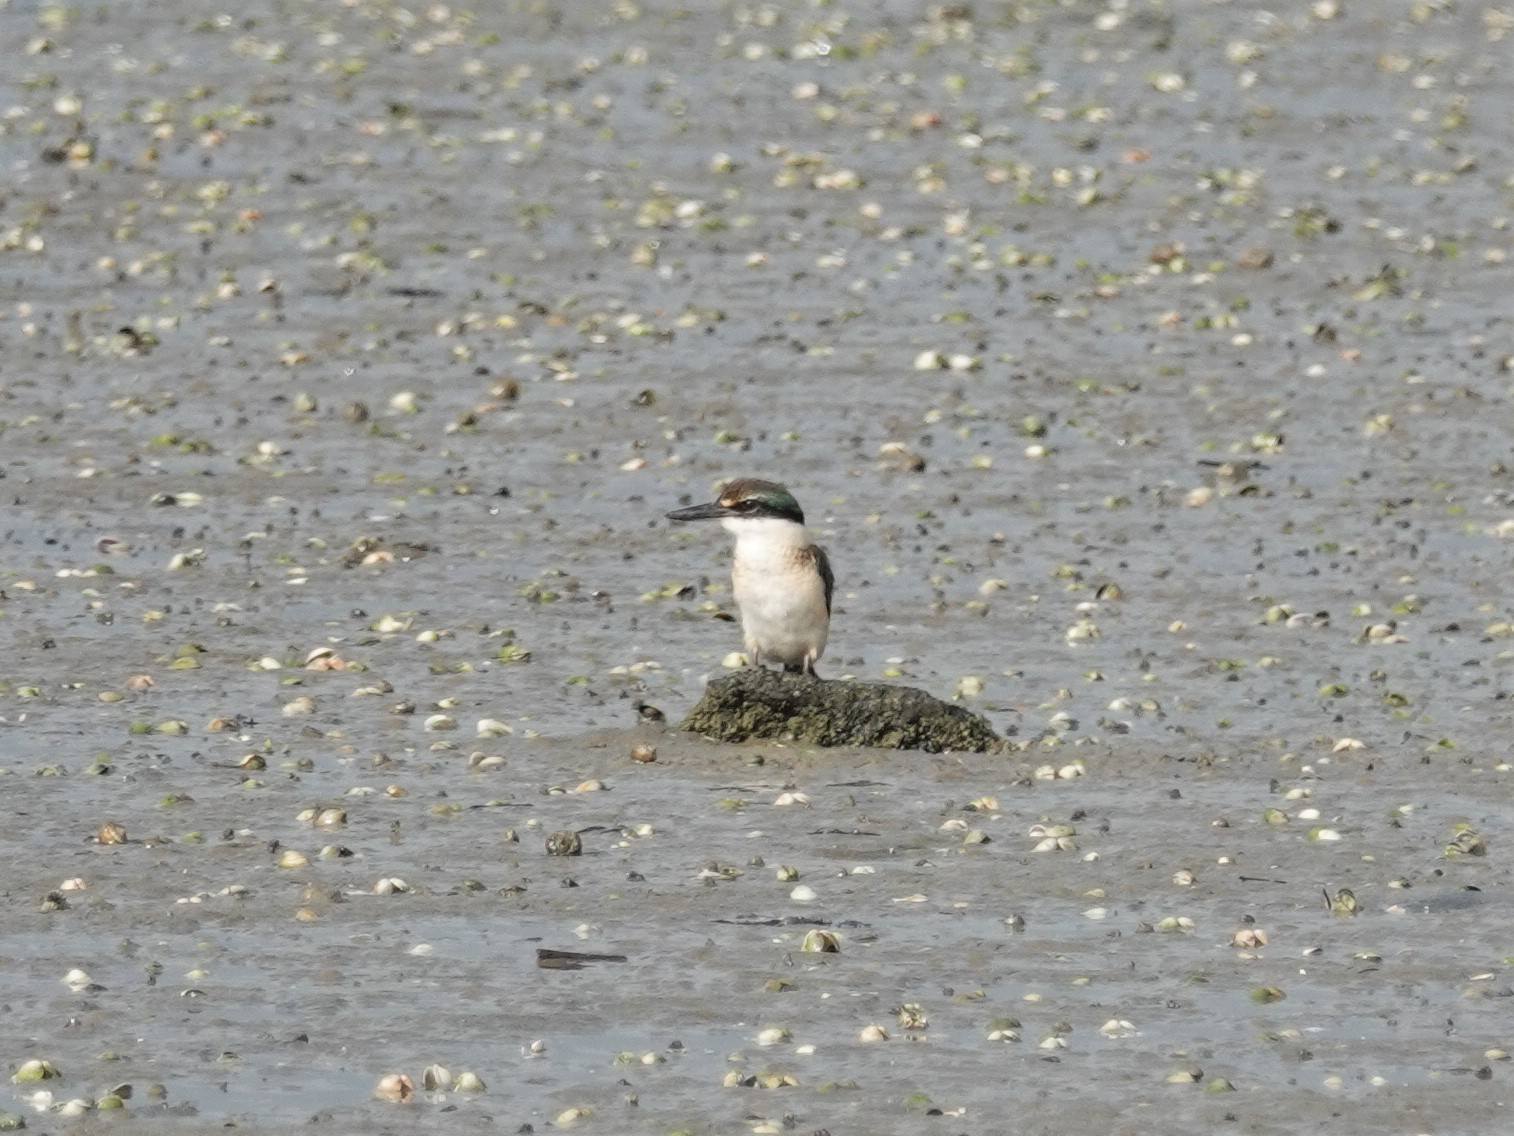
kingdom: Animalia
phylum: Chordata
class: Aves
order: Coraciiformes
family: Alcedinidae
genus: Todiramphus
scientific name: Todiramphus sanctus
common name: Sacred kingfisher
